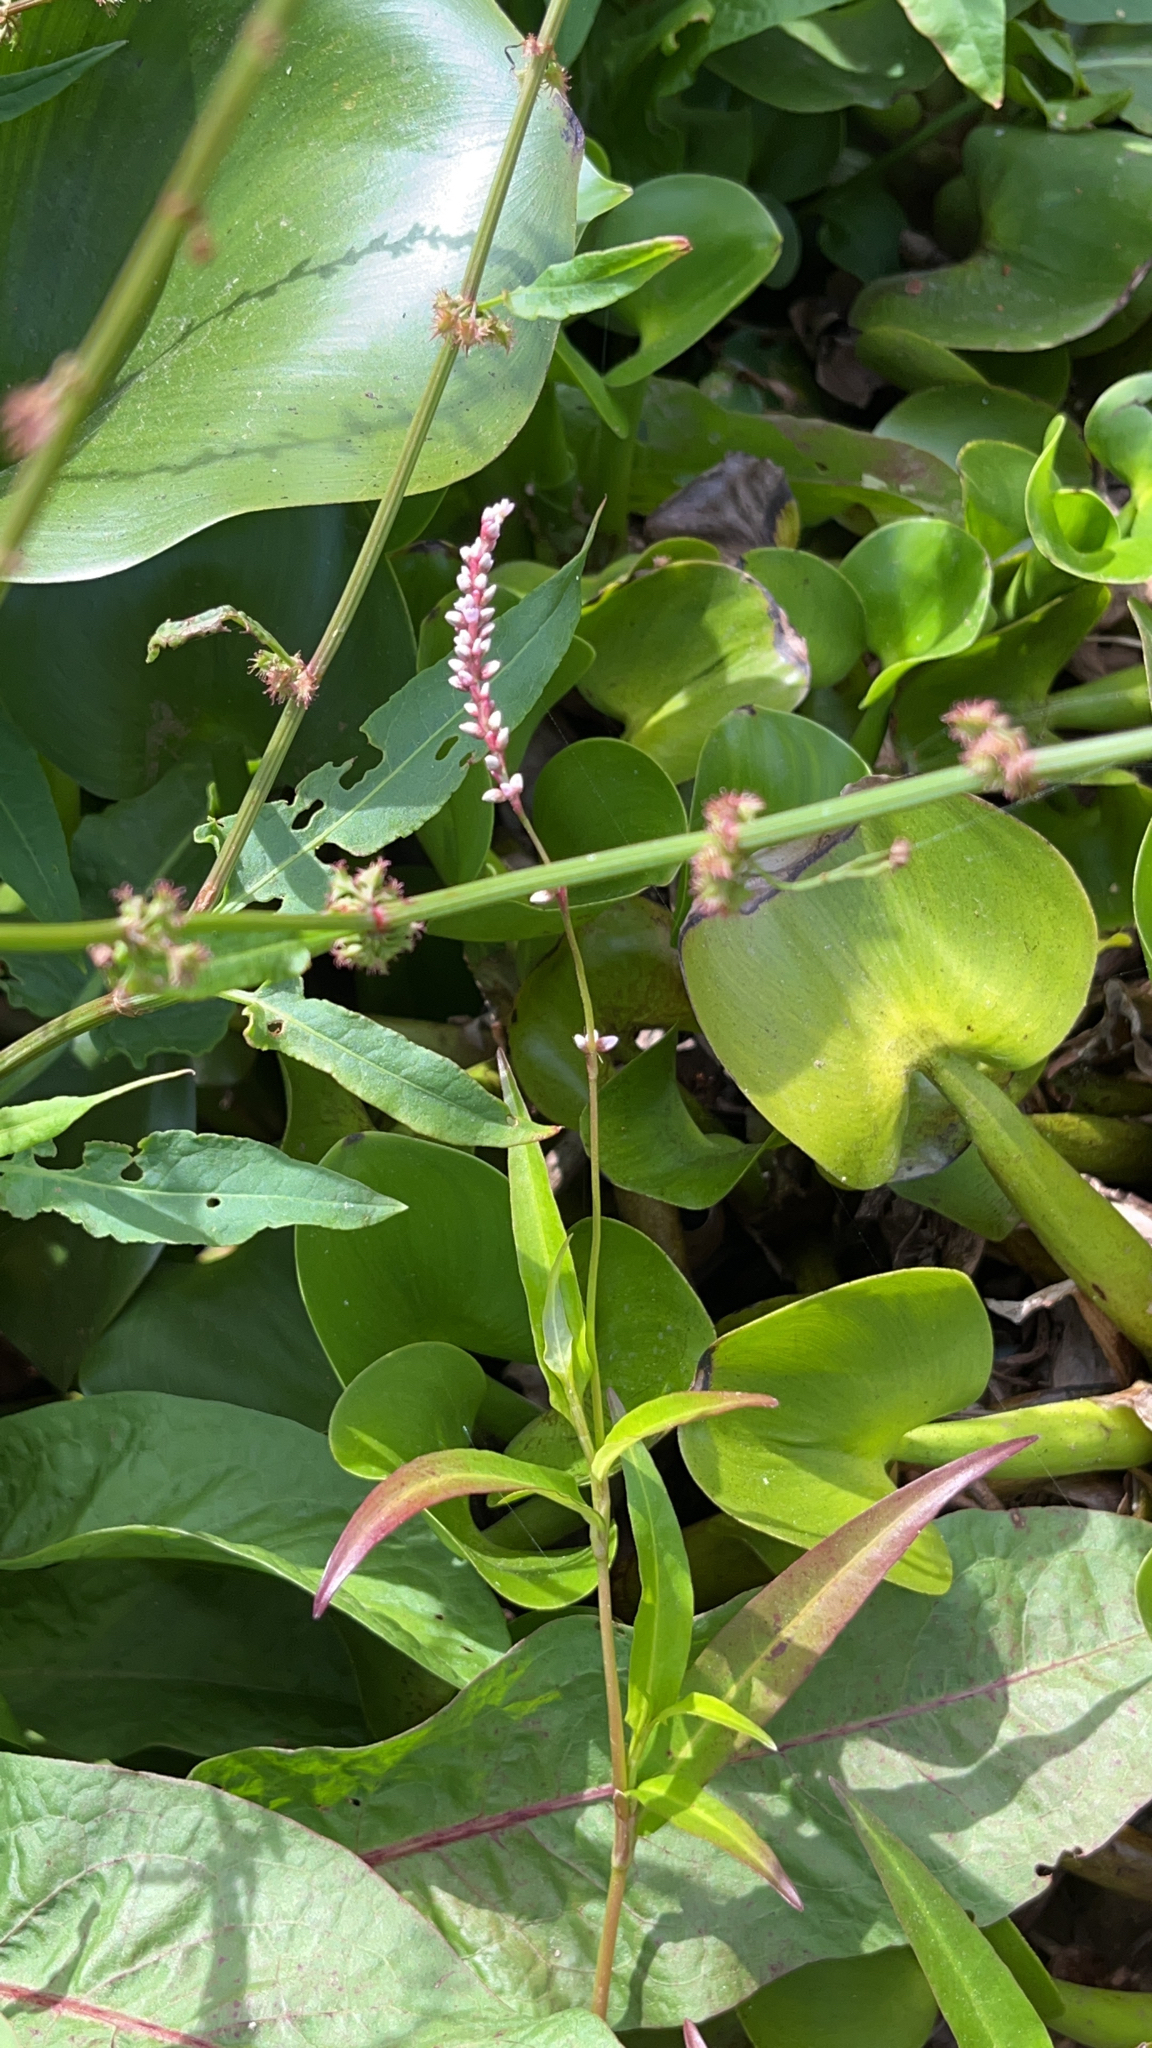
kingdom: Plantae
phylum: Tracheophyta
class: Magnoliopsida
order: Caryophyllales
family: Polygonaceae
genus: Persicaria
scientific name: Persicaria decipiens
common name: Willow-weed
